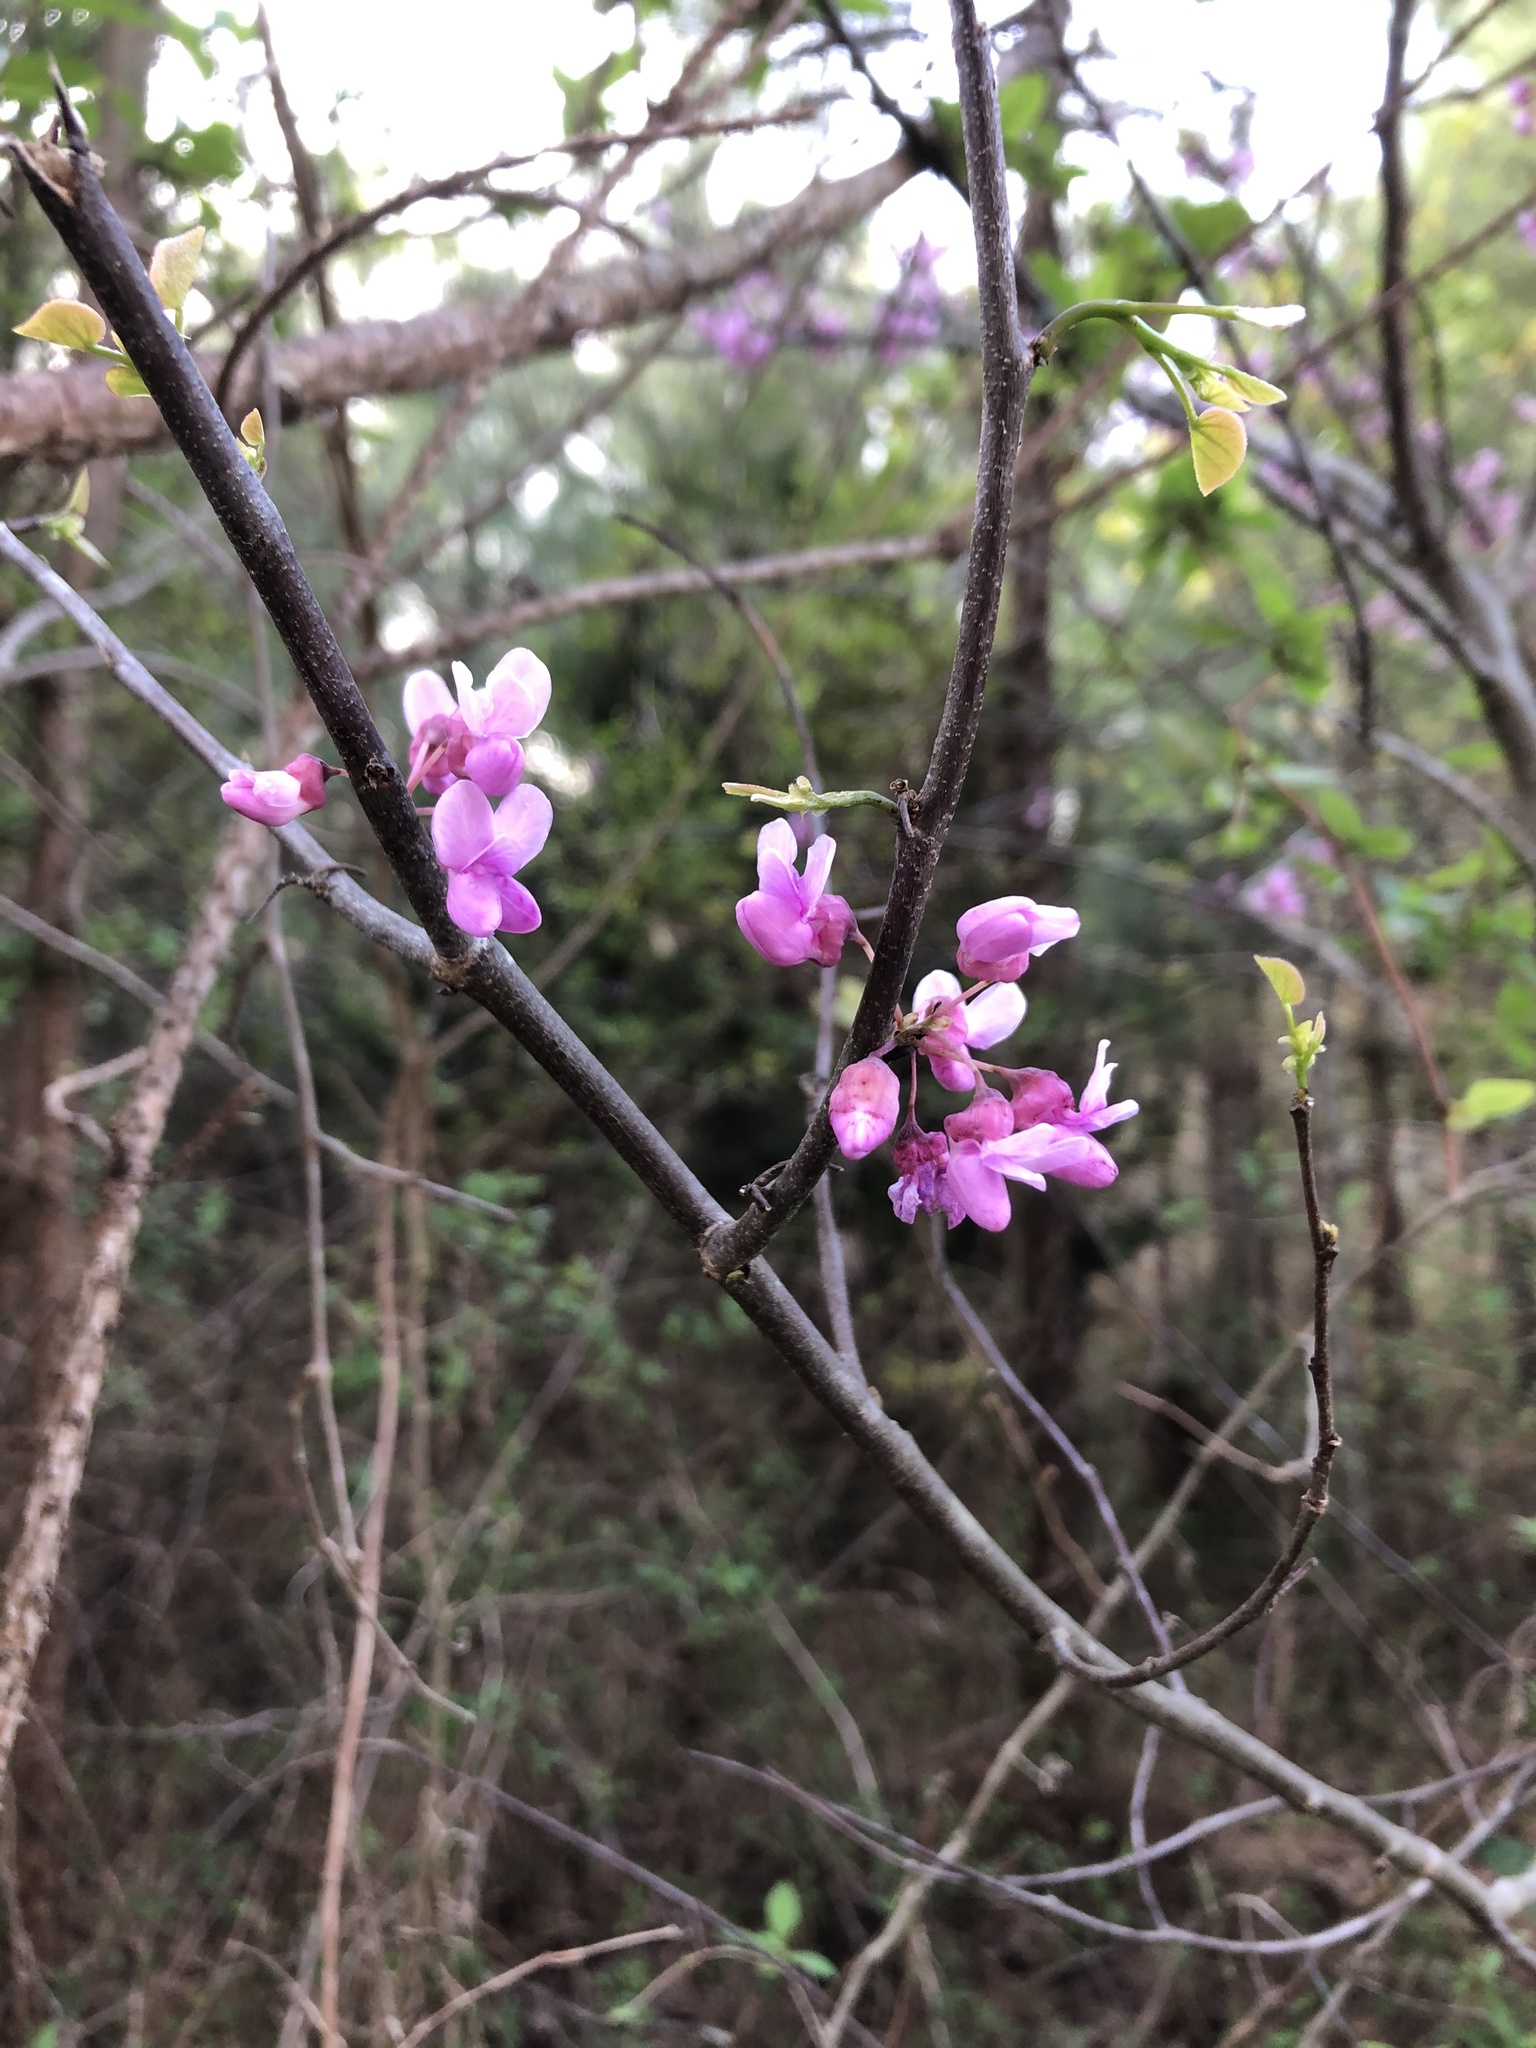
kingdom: Plantae
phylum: Tracheophyta
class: Magnoliopsida
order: Fabales
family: Fabaceae
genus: Cercis
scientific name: Cercis canadensis
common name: Eastern redbud
